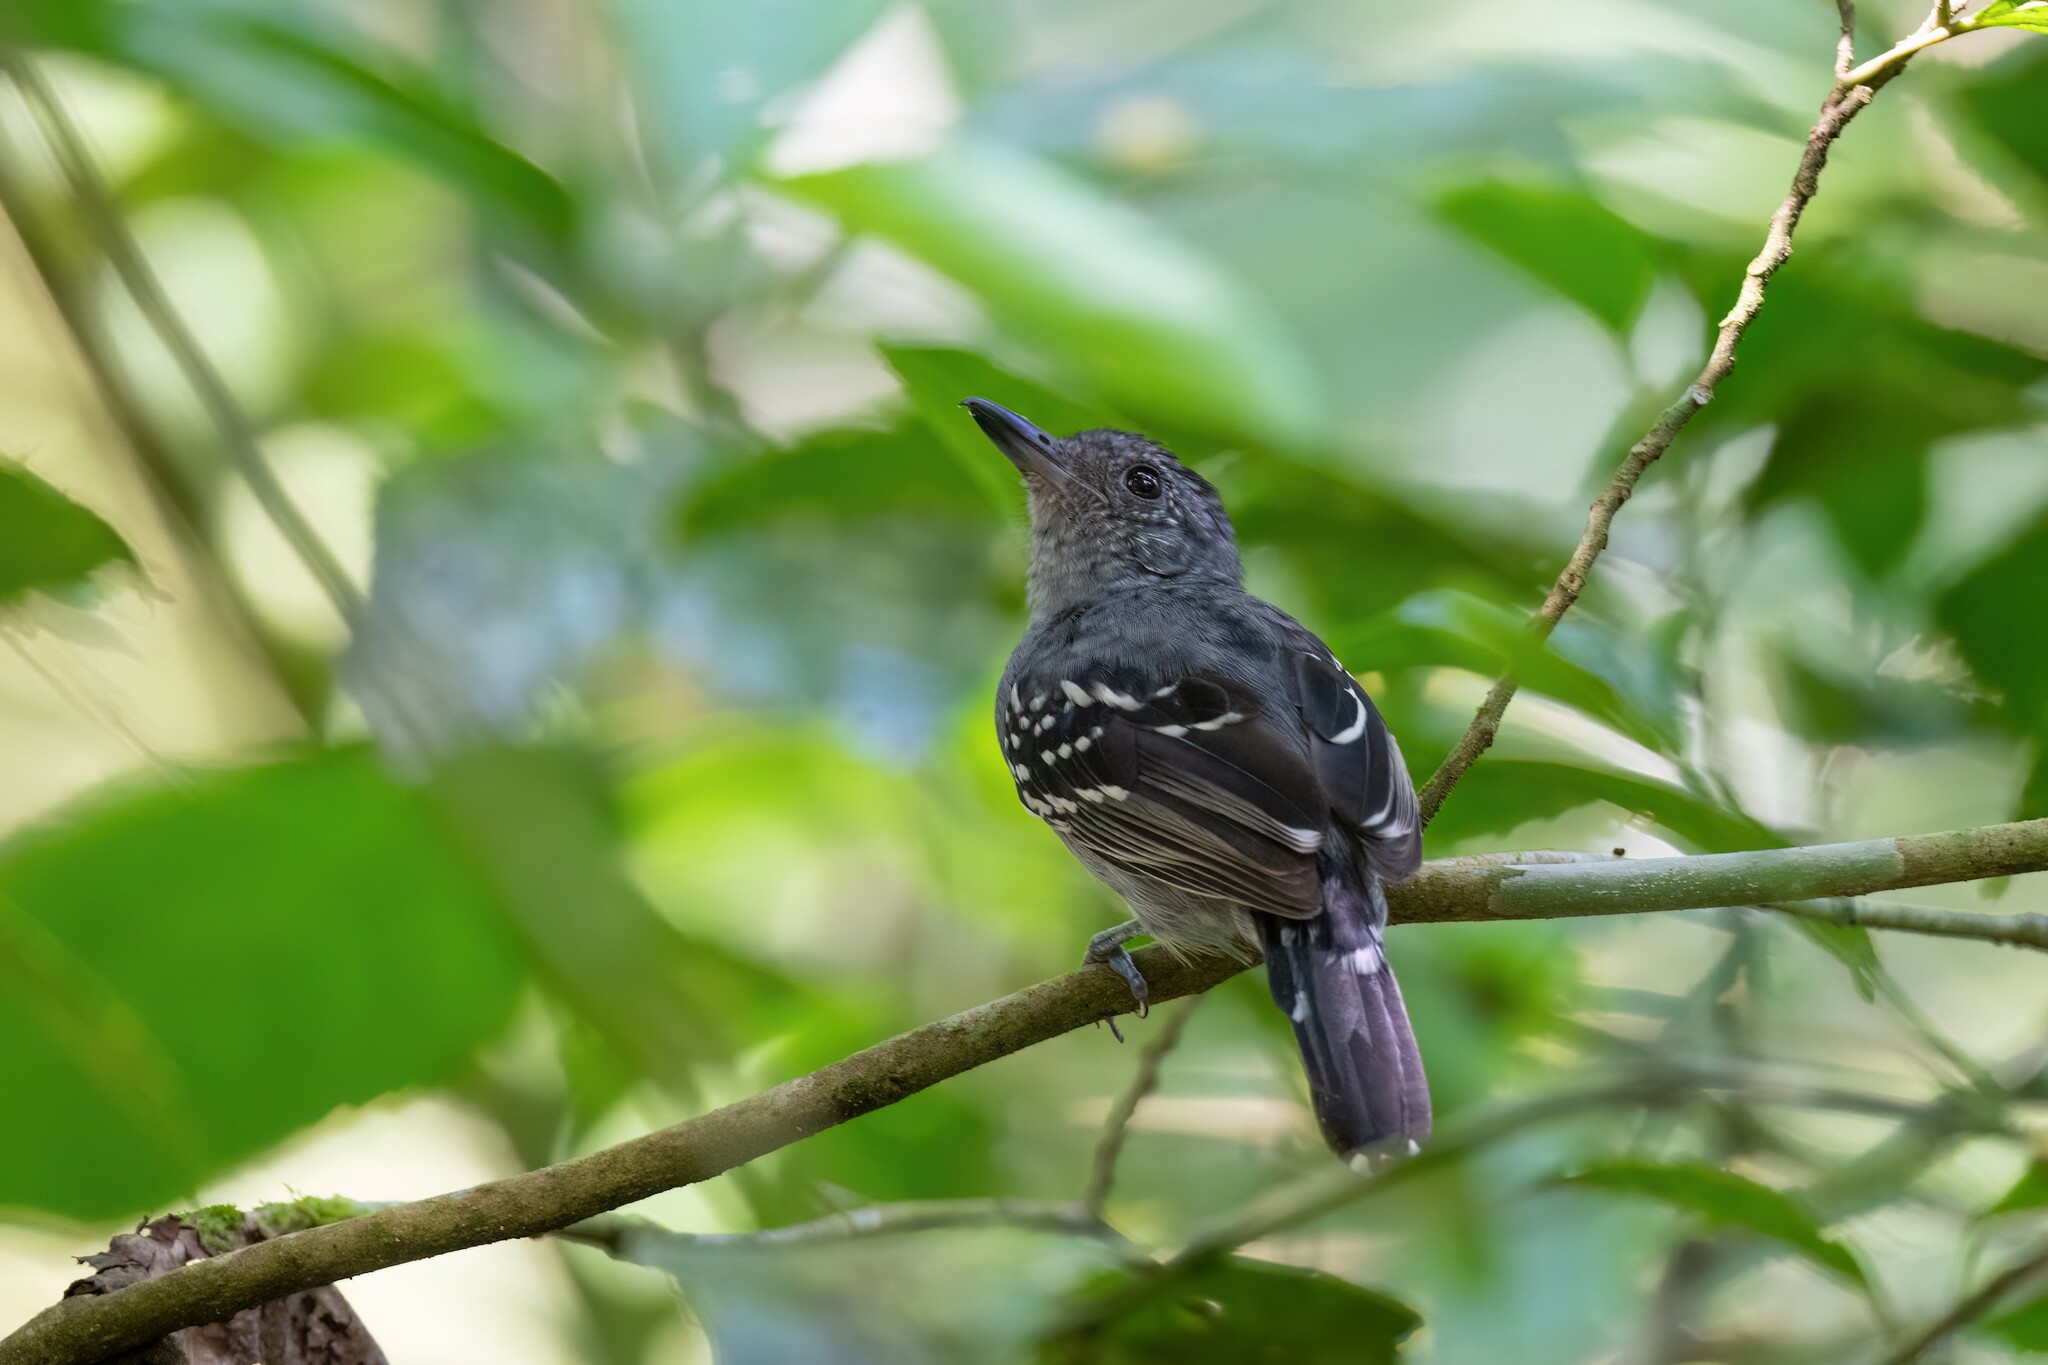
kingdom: Animalia
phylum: Chordata
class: Aves
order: Passeriformes
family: Thamnophilidae
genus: Thamnophilus
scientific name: Thamnophilus atrinucha
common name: Black-crowned antshrike
